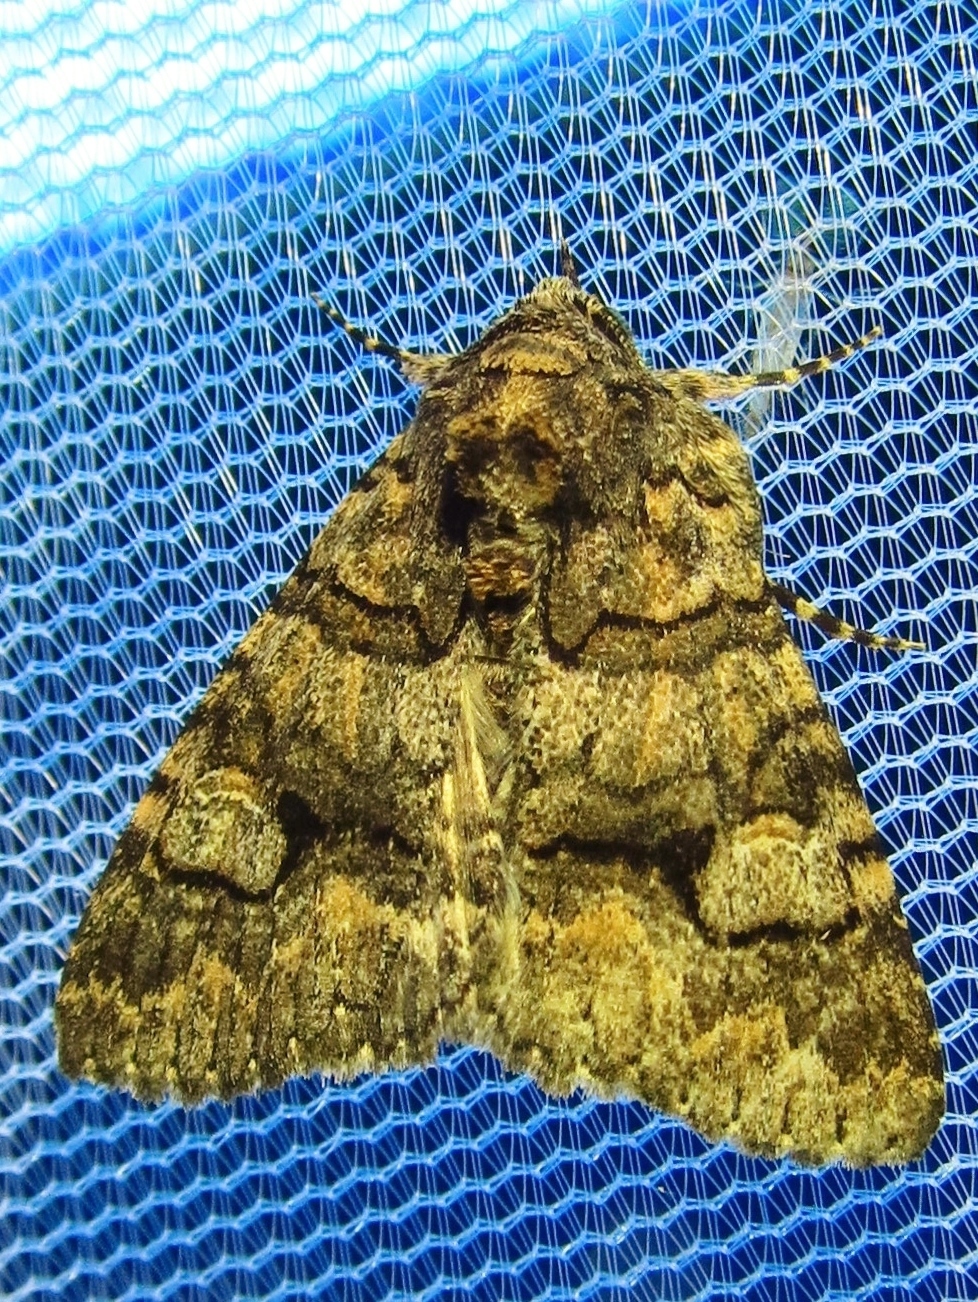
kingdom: Animalia
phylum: Arthropoda
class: Insecta
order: Lepidoptera
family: Erebidae
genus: Elousa
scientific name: Elousa mima
